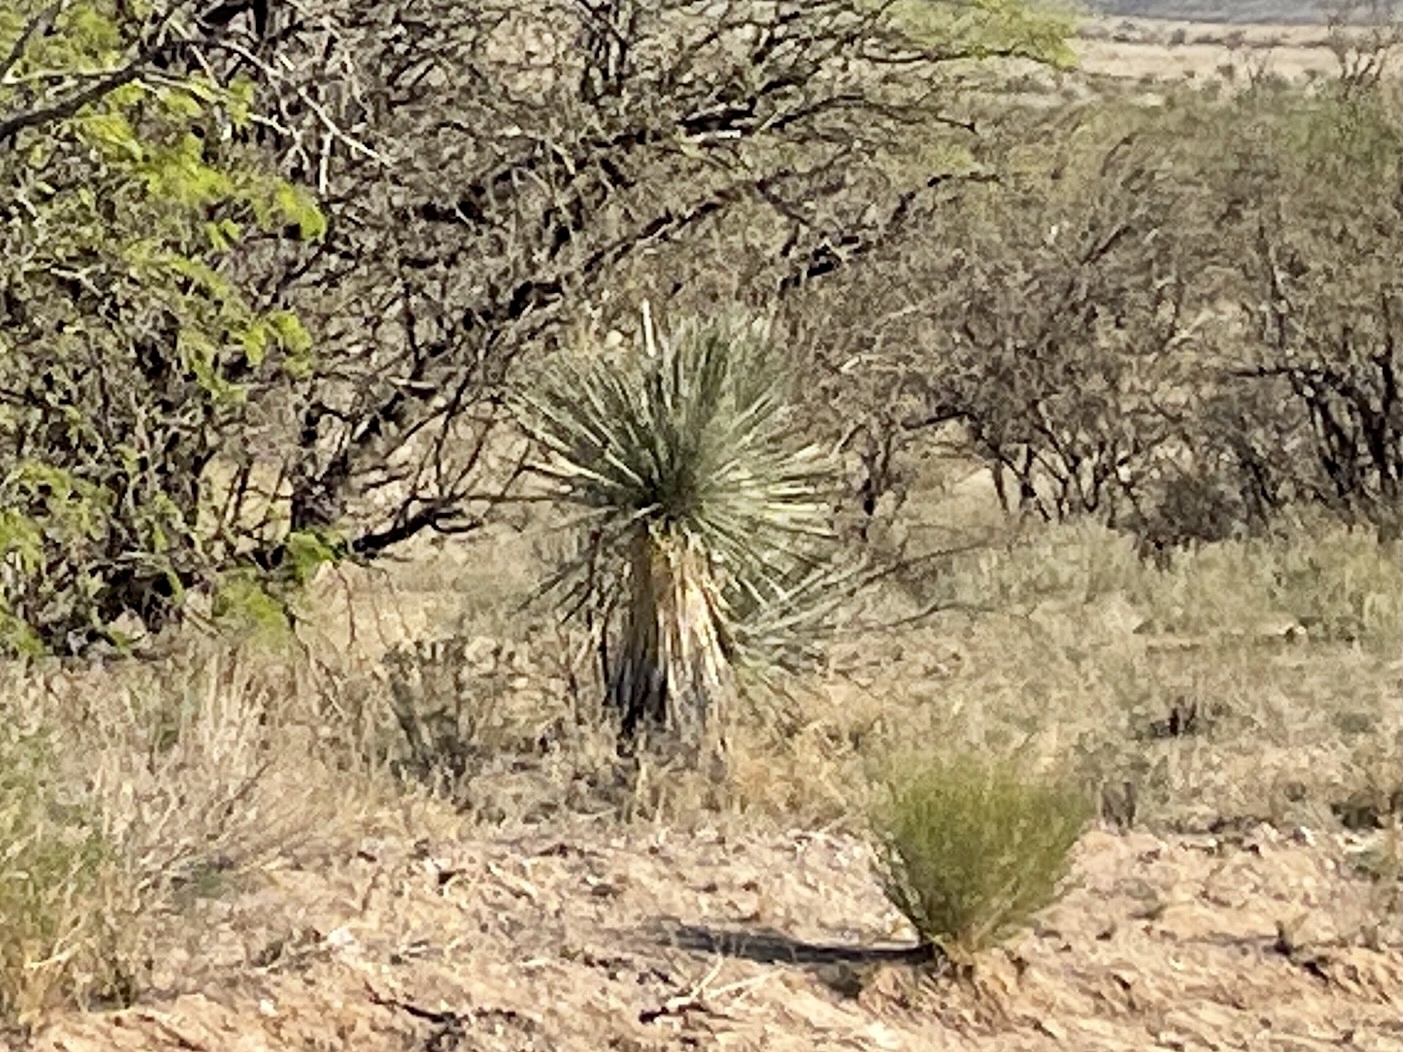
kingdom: Plantae
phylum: Tracheophyta
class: Liliopsida
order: Asparagales
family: Asparagaceae
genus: Yucca
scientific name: Yucca elata
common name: Palmella
